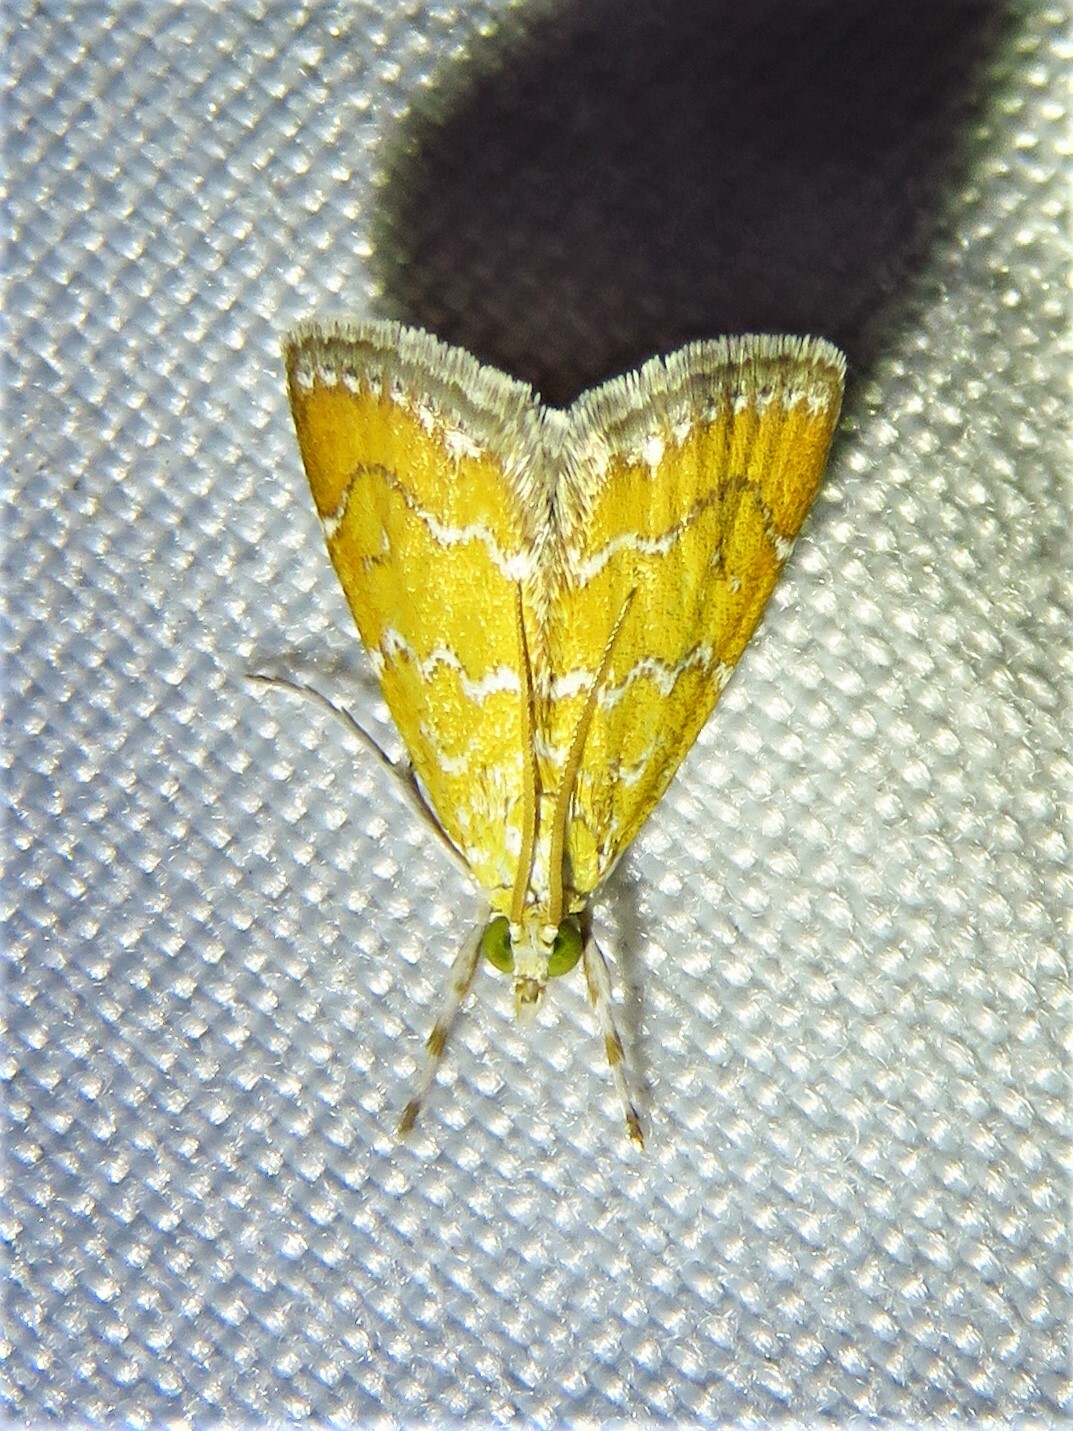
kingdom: Animalia
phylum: Arthropoda
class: Insecta
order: Lepidoptera
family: Crambidae
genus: Xanthophysa
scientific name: Xanthophysa psychicalis
